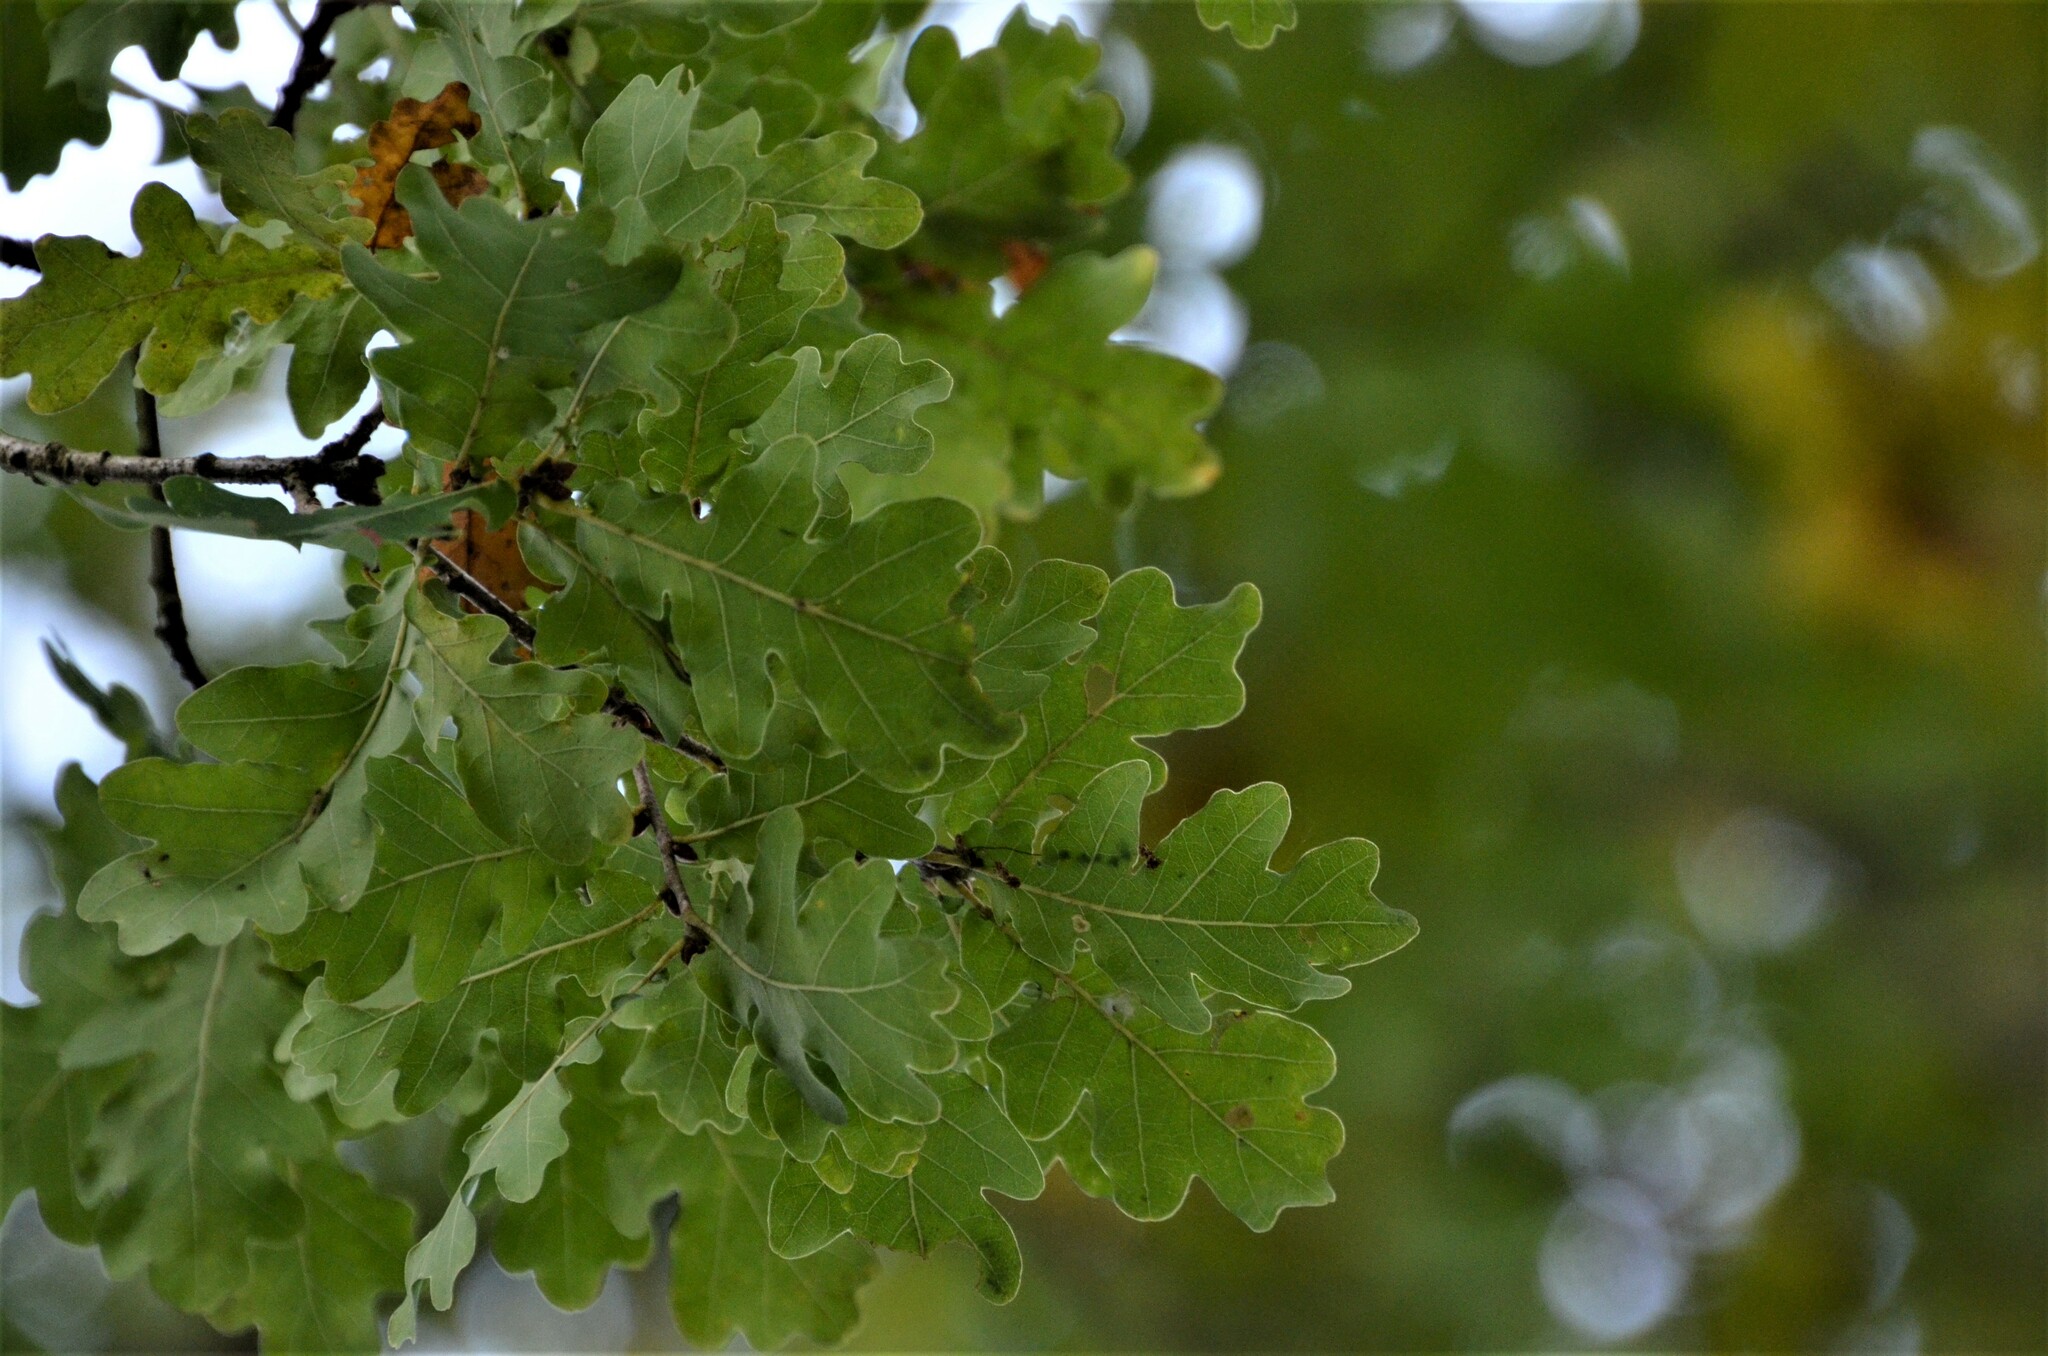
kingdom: Plantae
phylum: Tracheophyta
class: Magnoliopsida
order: Fagales
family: Fagaceae
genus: Quercus
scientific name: Quercus robur
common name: Pedunculate oak
